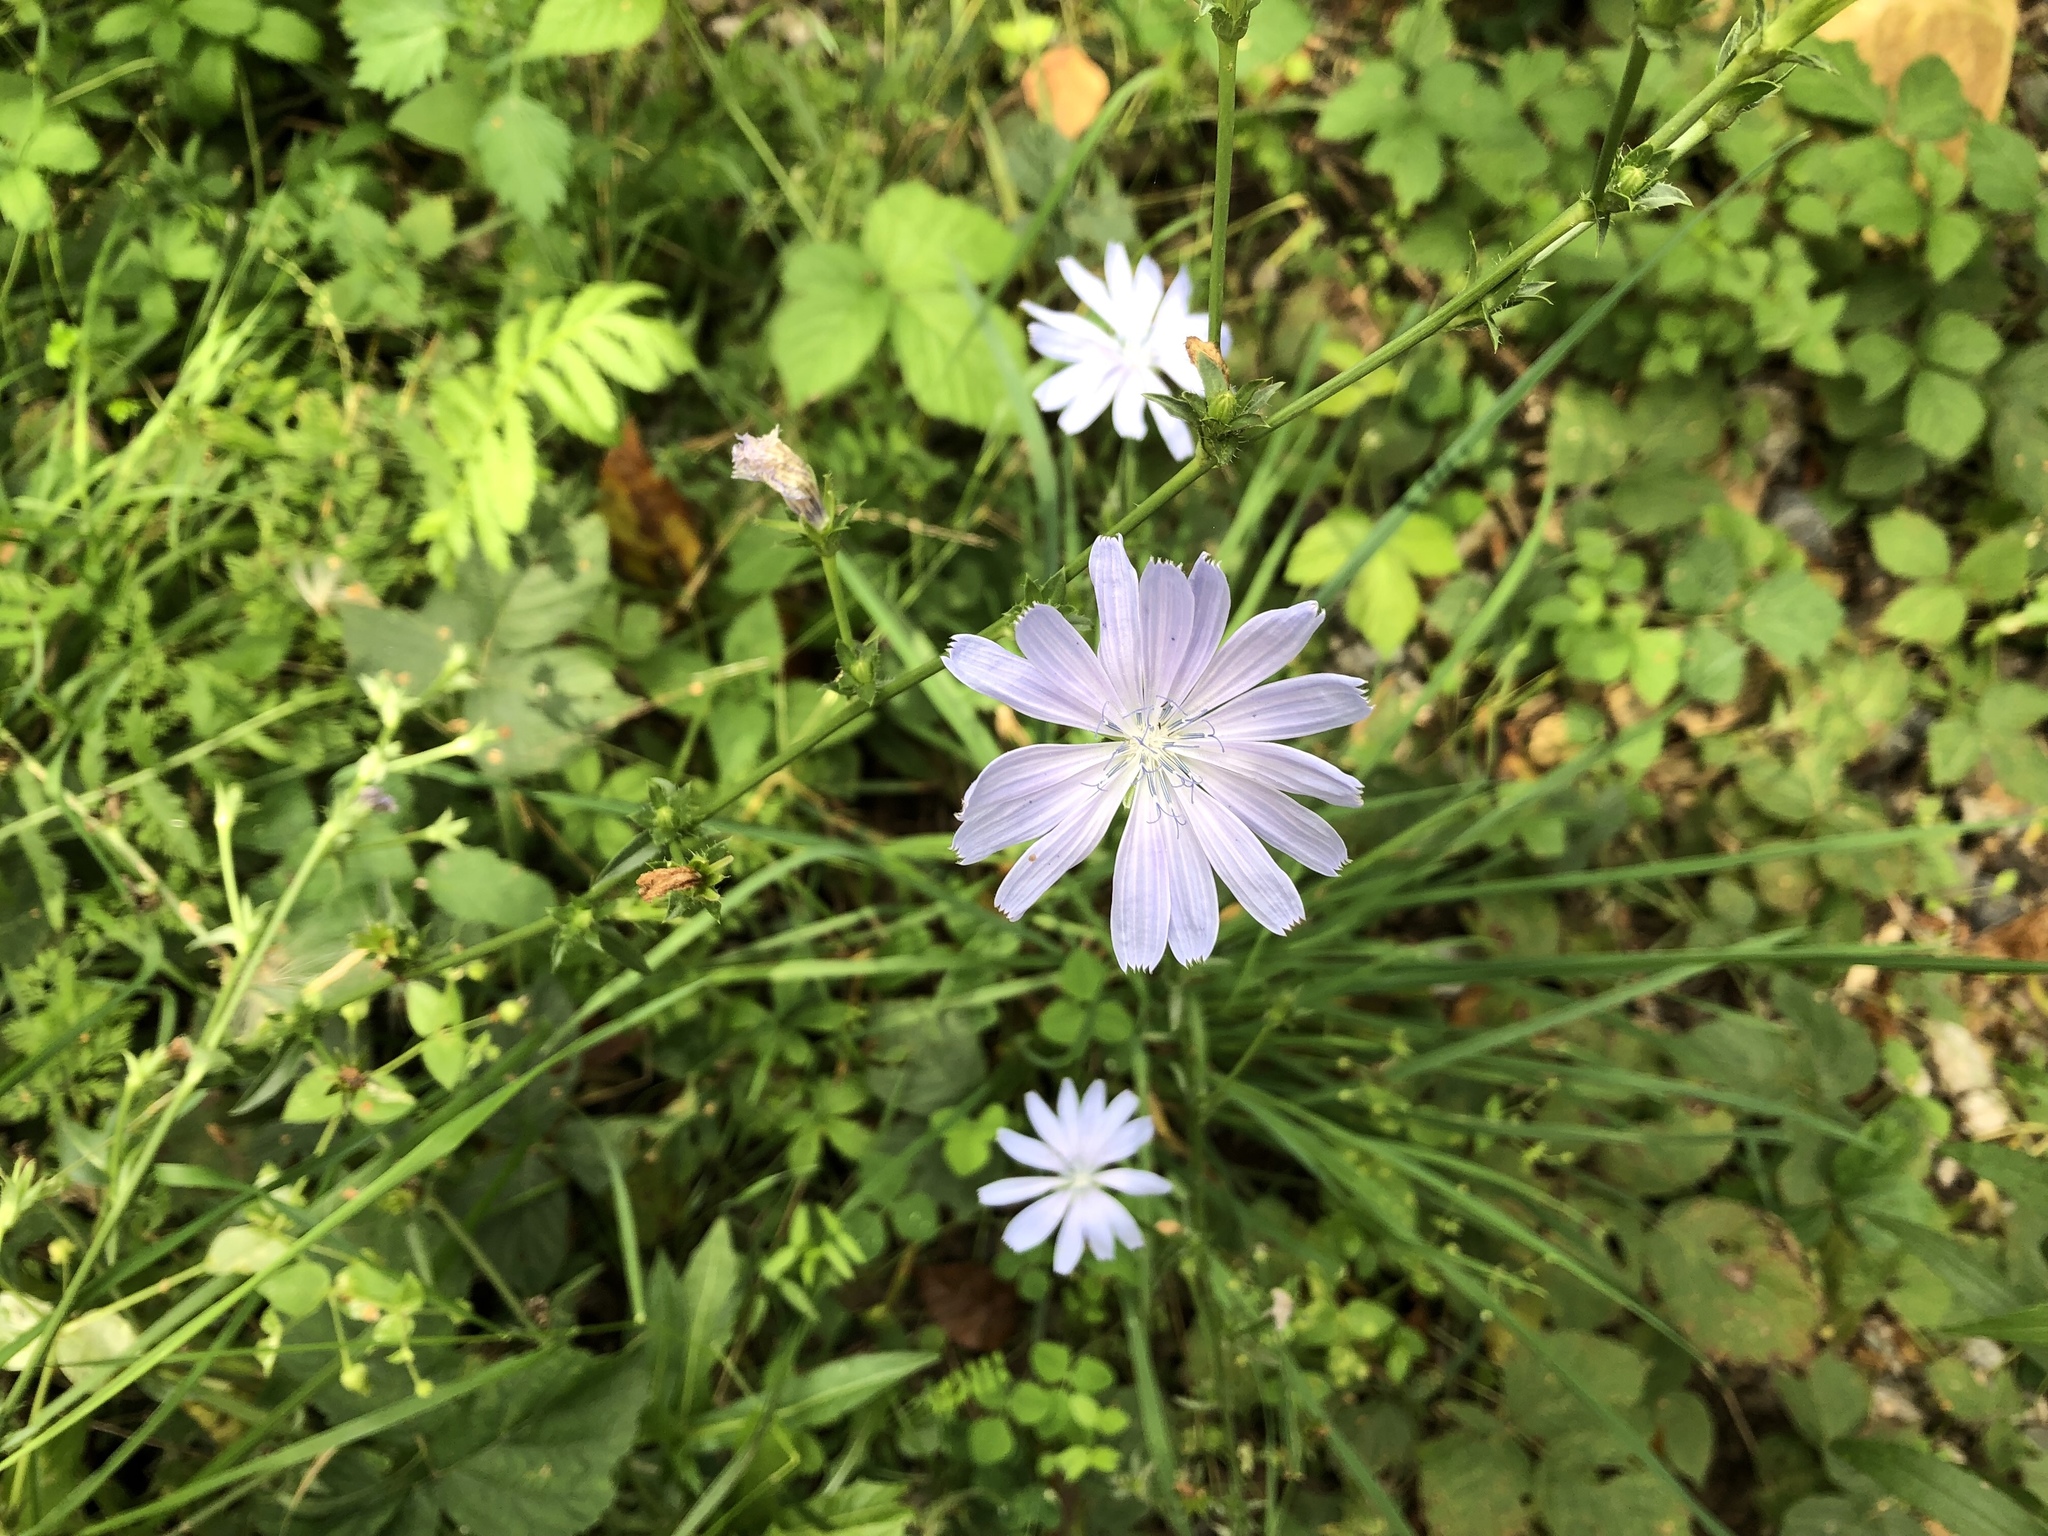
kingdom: Plantae
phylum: Tracheophyta
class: Magnoliopsida
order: Asterales
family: Asteraceae
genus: Cichorium
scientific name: Cichorium intybus
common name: Chicory
